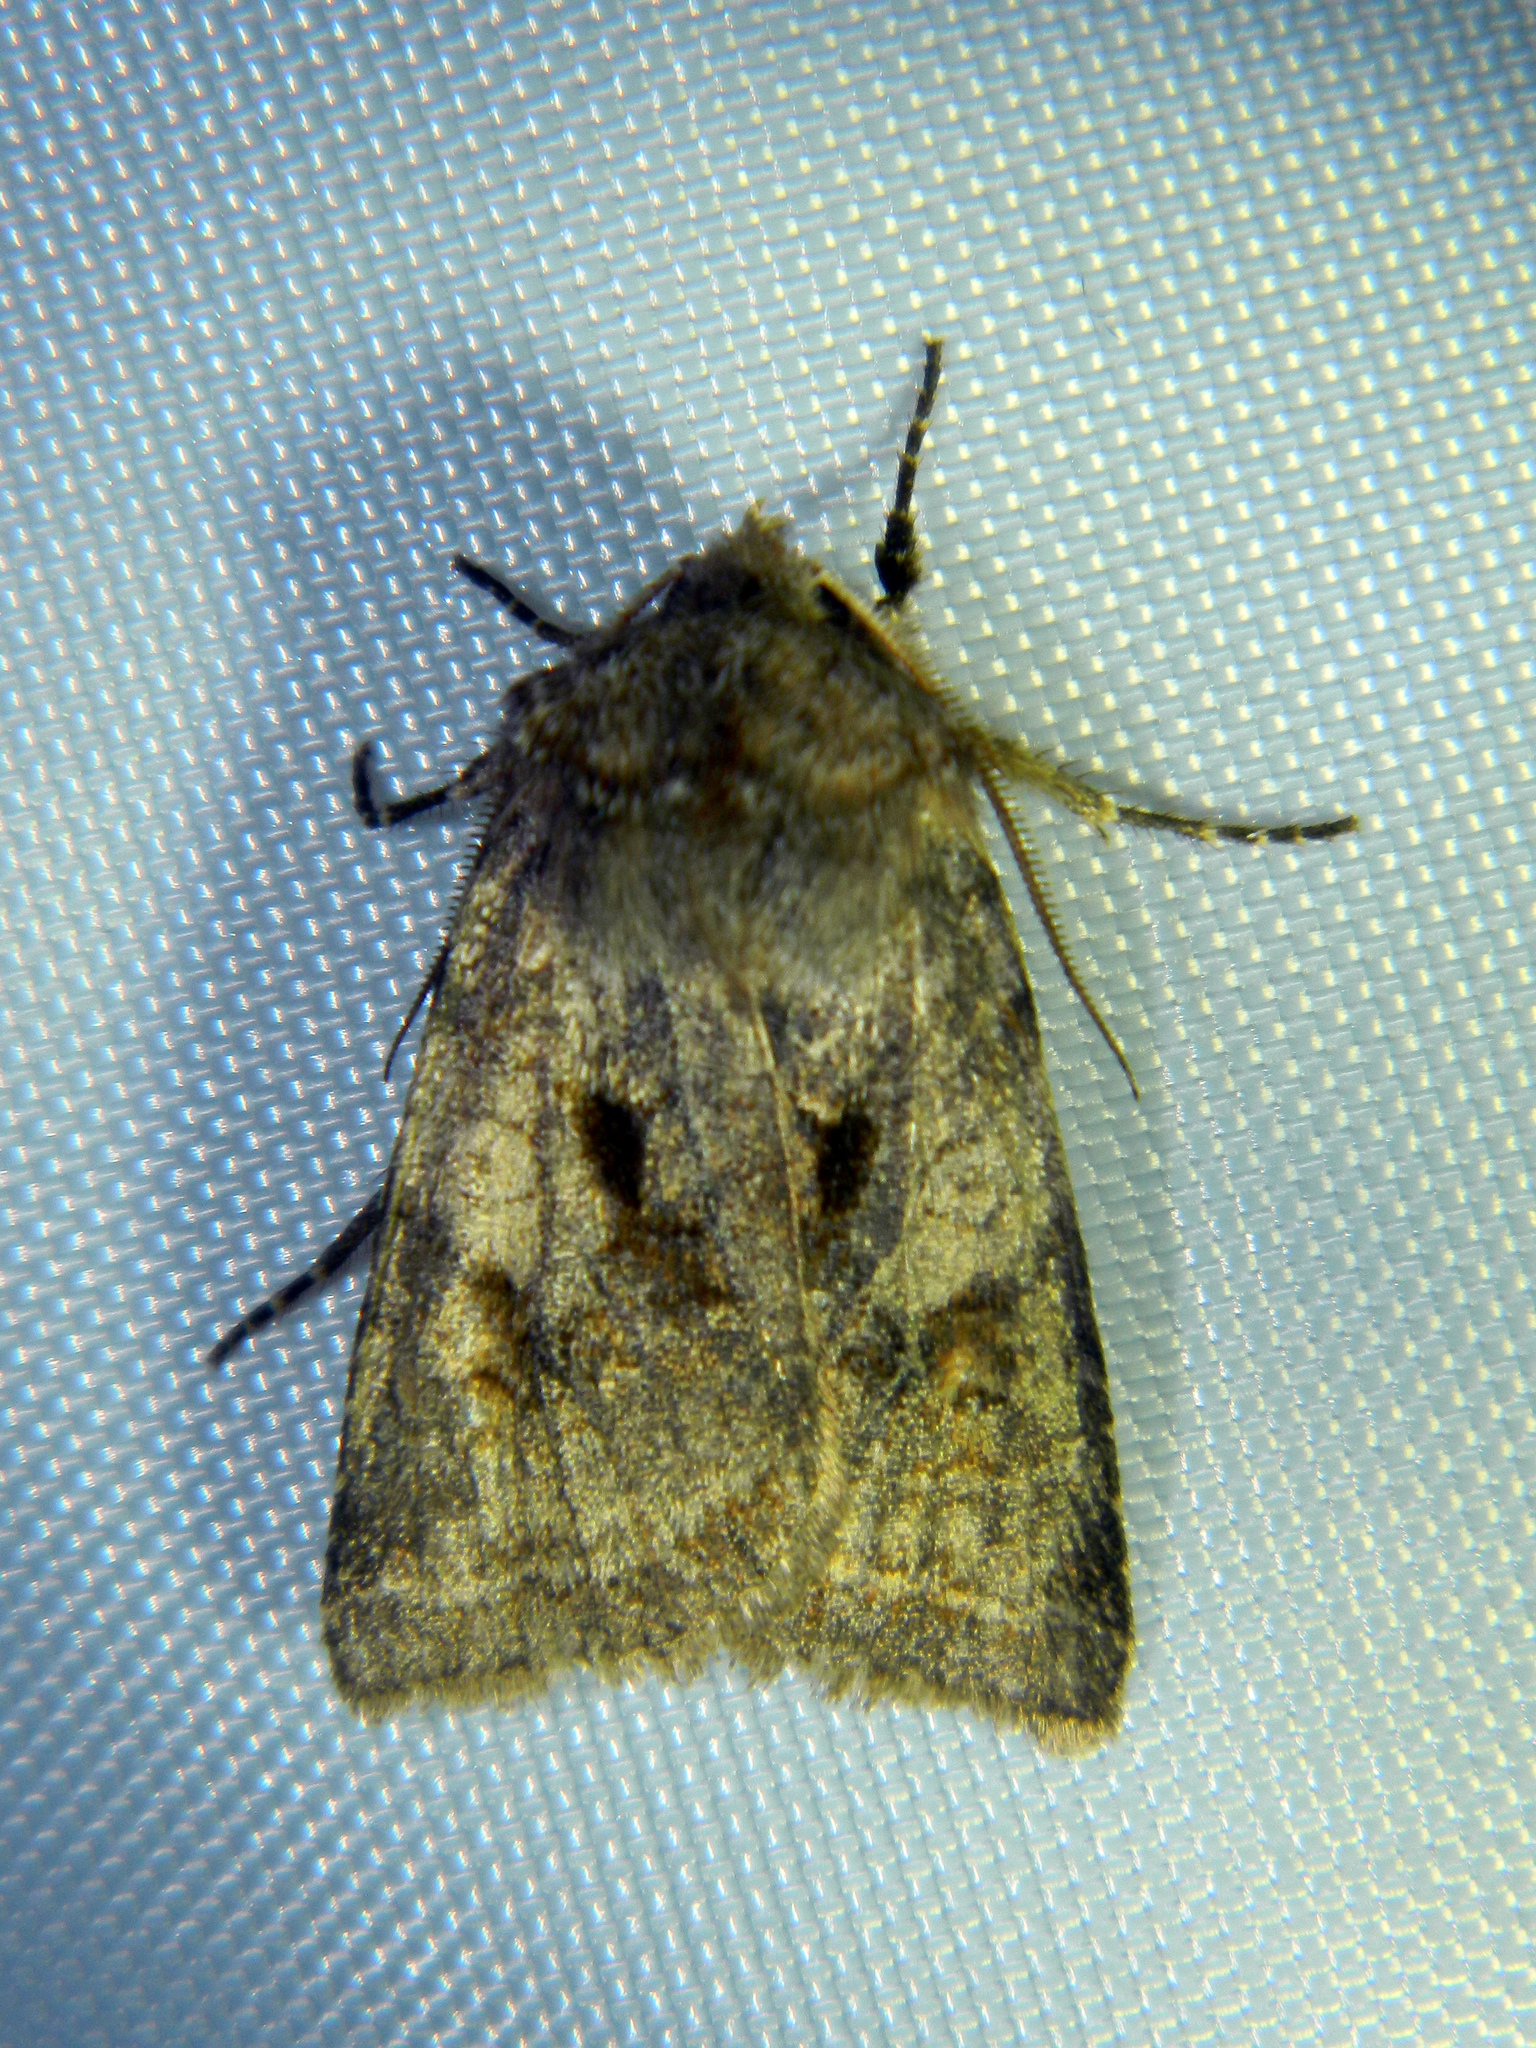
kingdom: Animalia
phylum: Arthropoda
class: Insecta
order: Lepidoptera
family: Noctuidae
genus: Cerastis
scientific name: Cerastis salicarum
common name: Willow dart
